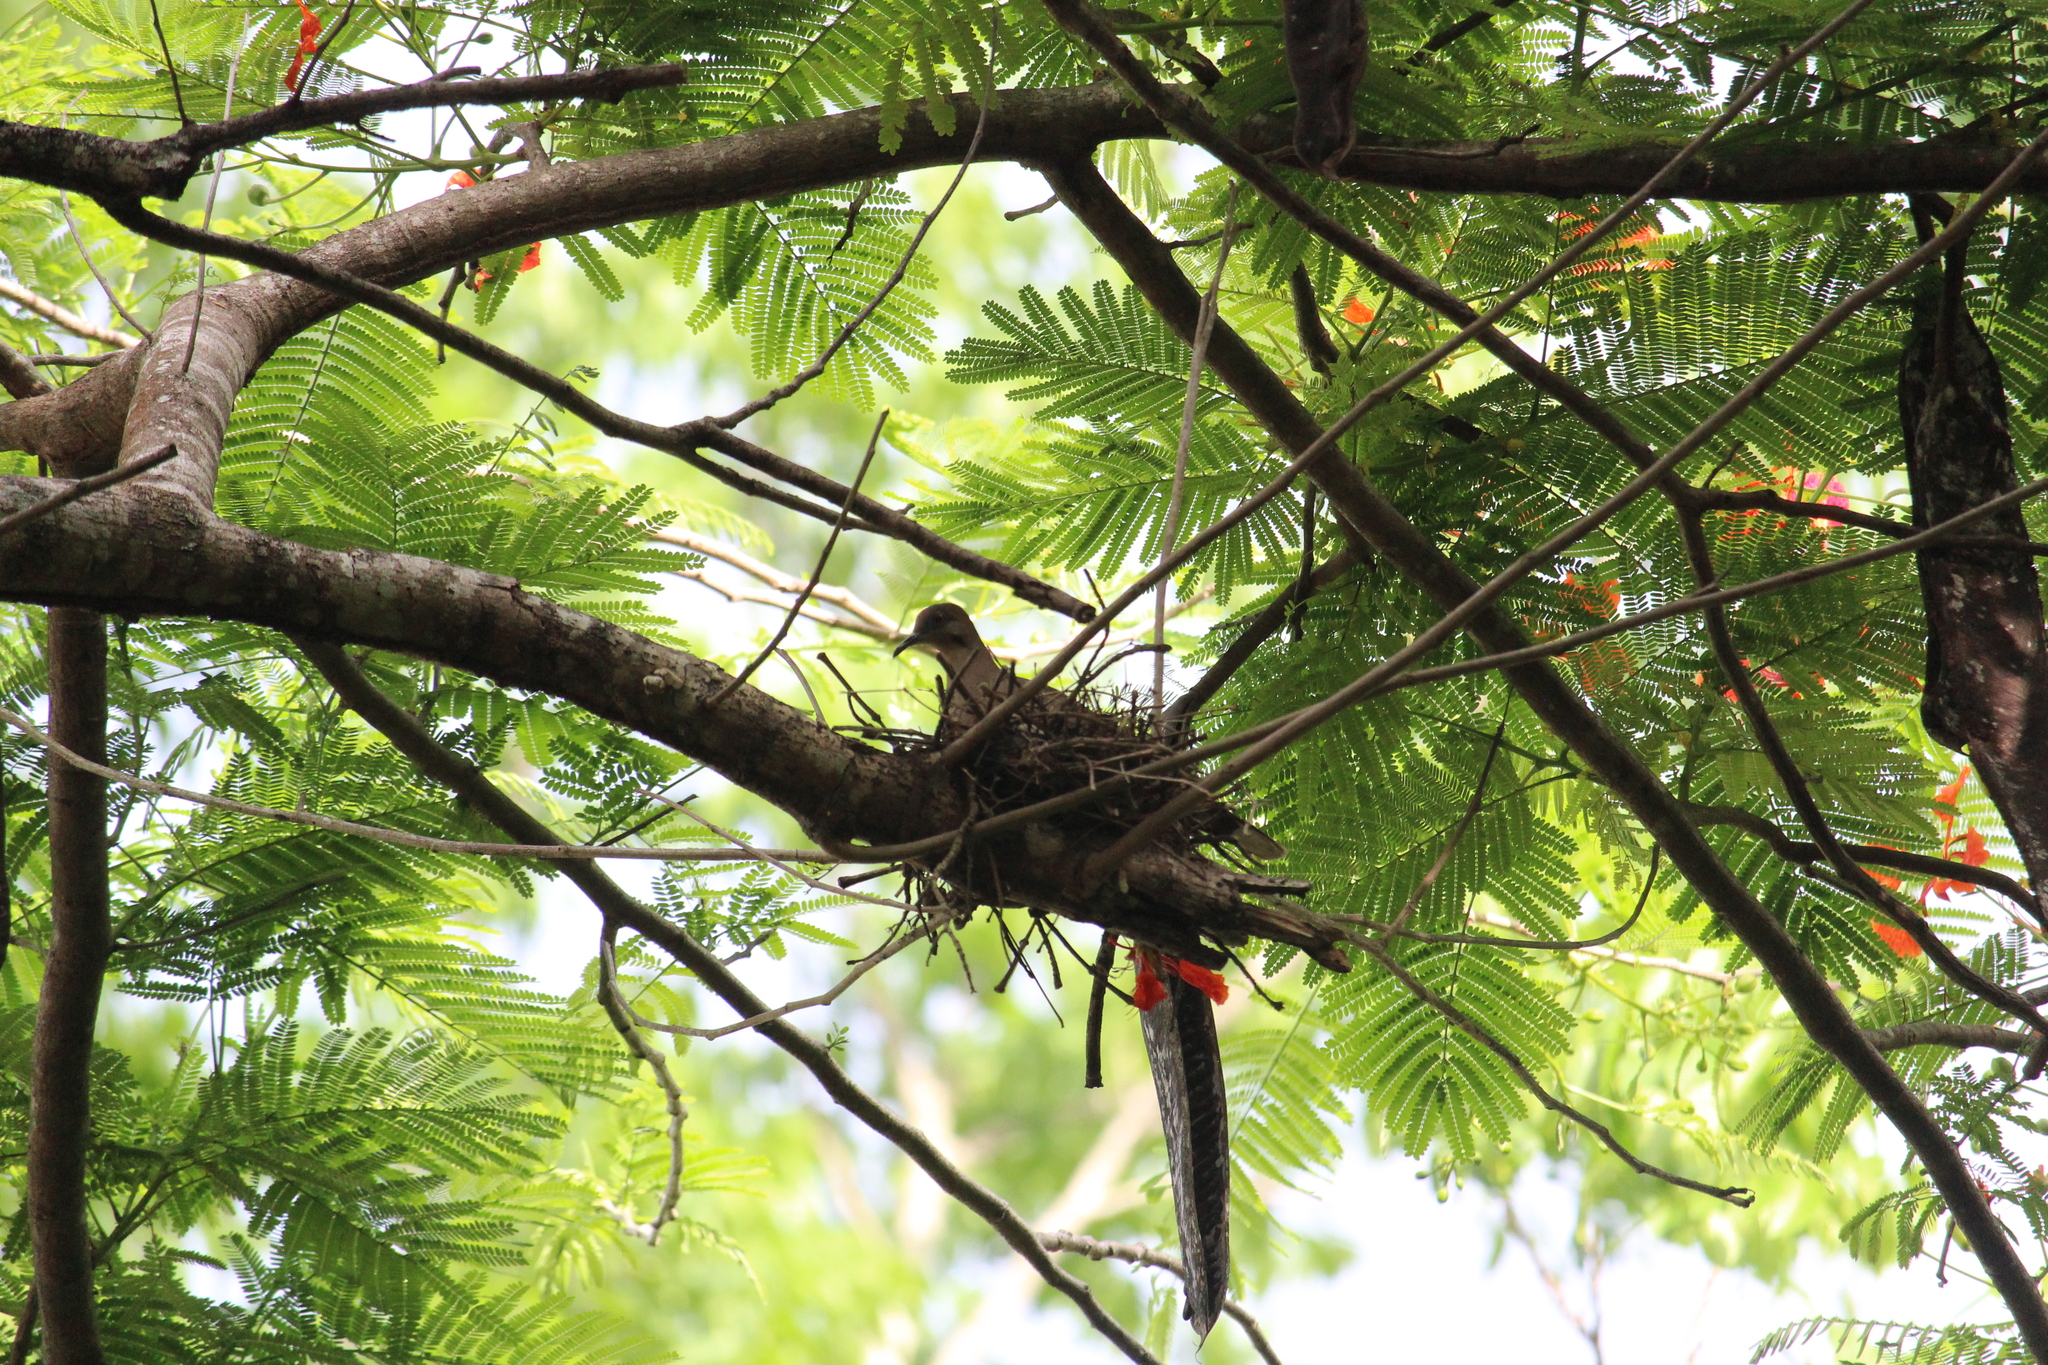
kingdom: Animalia
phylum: Chordata
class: Aves
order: Columbiformes
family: Columbidae
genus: Zenaida
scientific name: Zenaida asiatica
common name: White-winged dove
